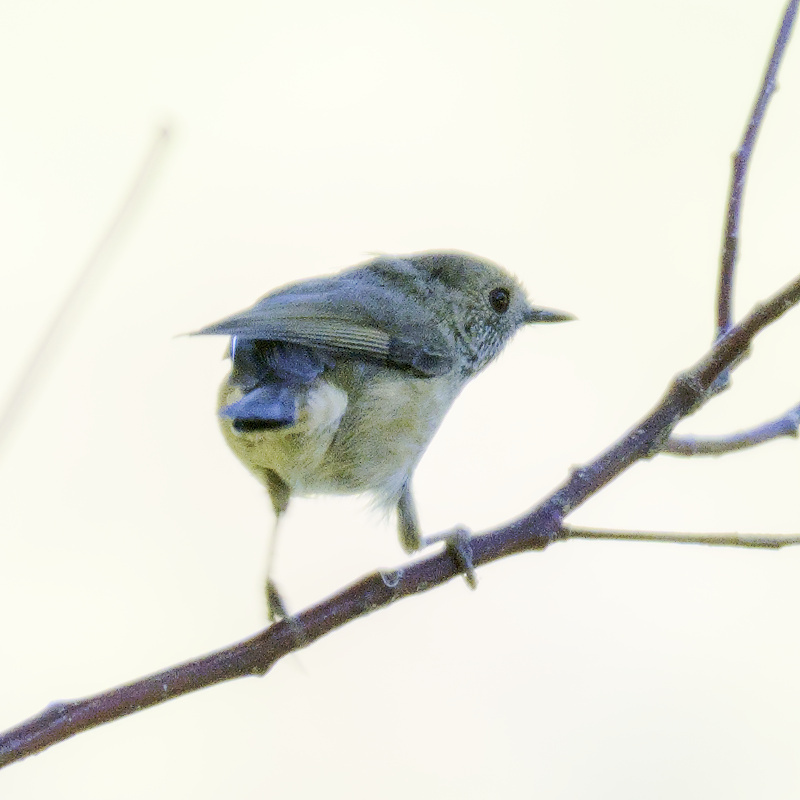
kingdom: Animalia
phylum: Chordata
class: Aves
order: Passeriformes
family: Acanthizidae
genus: Acanthiza
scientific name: Acanthiza pusilla
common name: Brown thornbill
